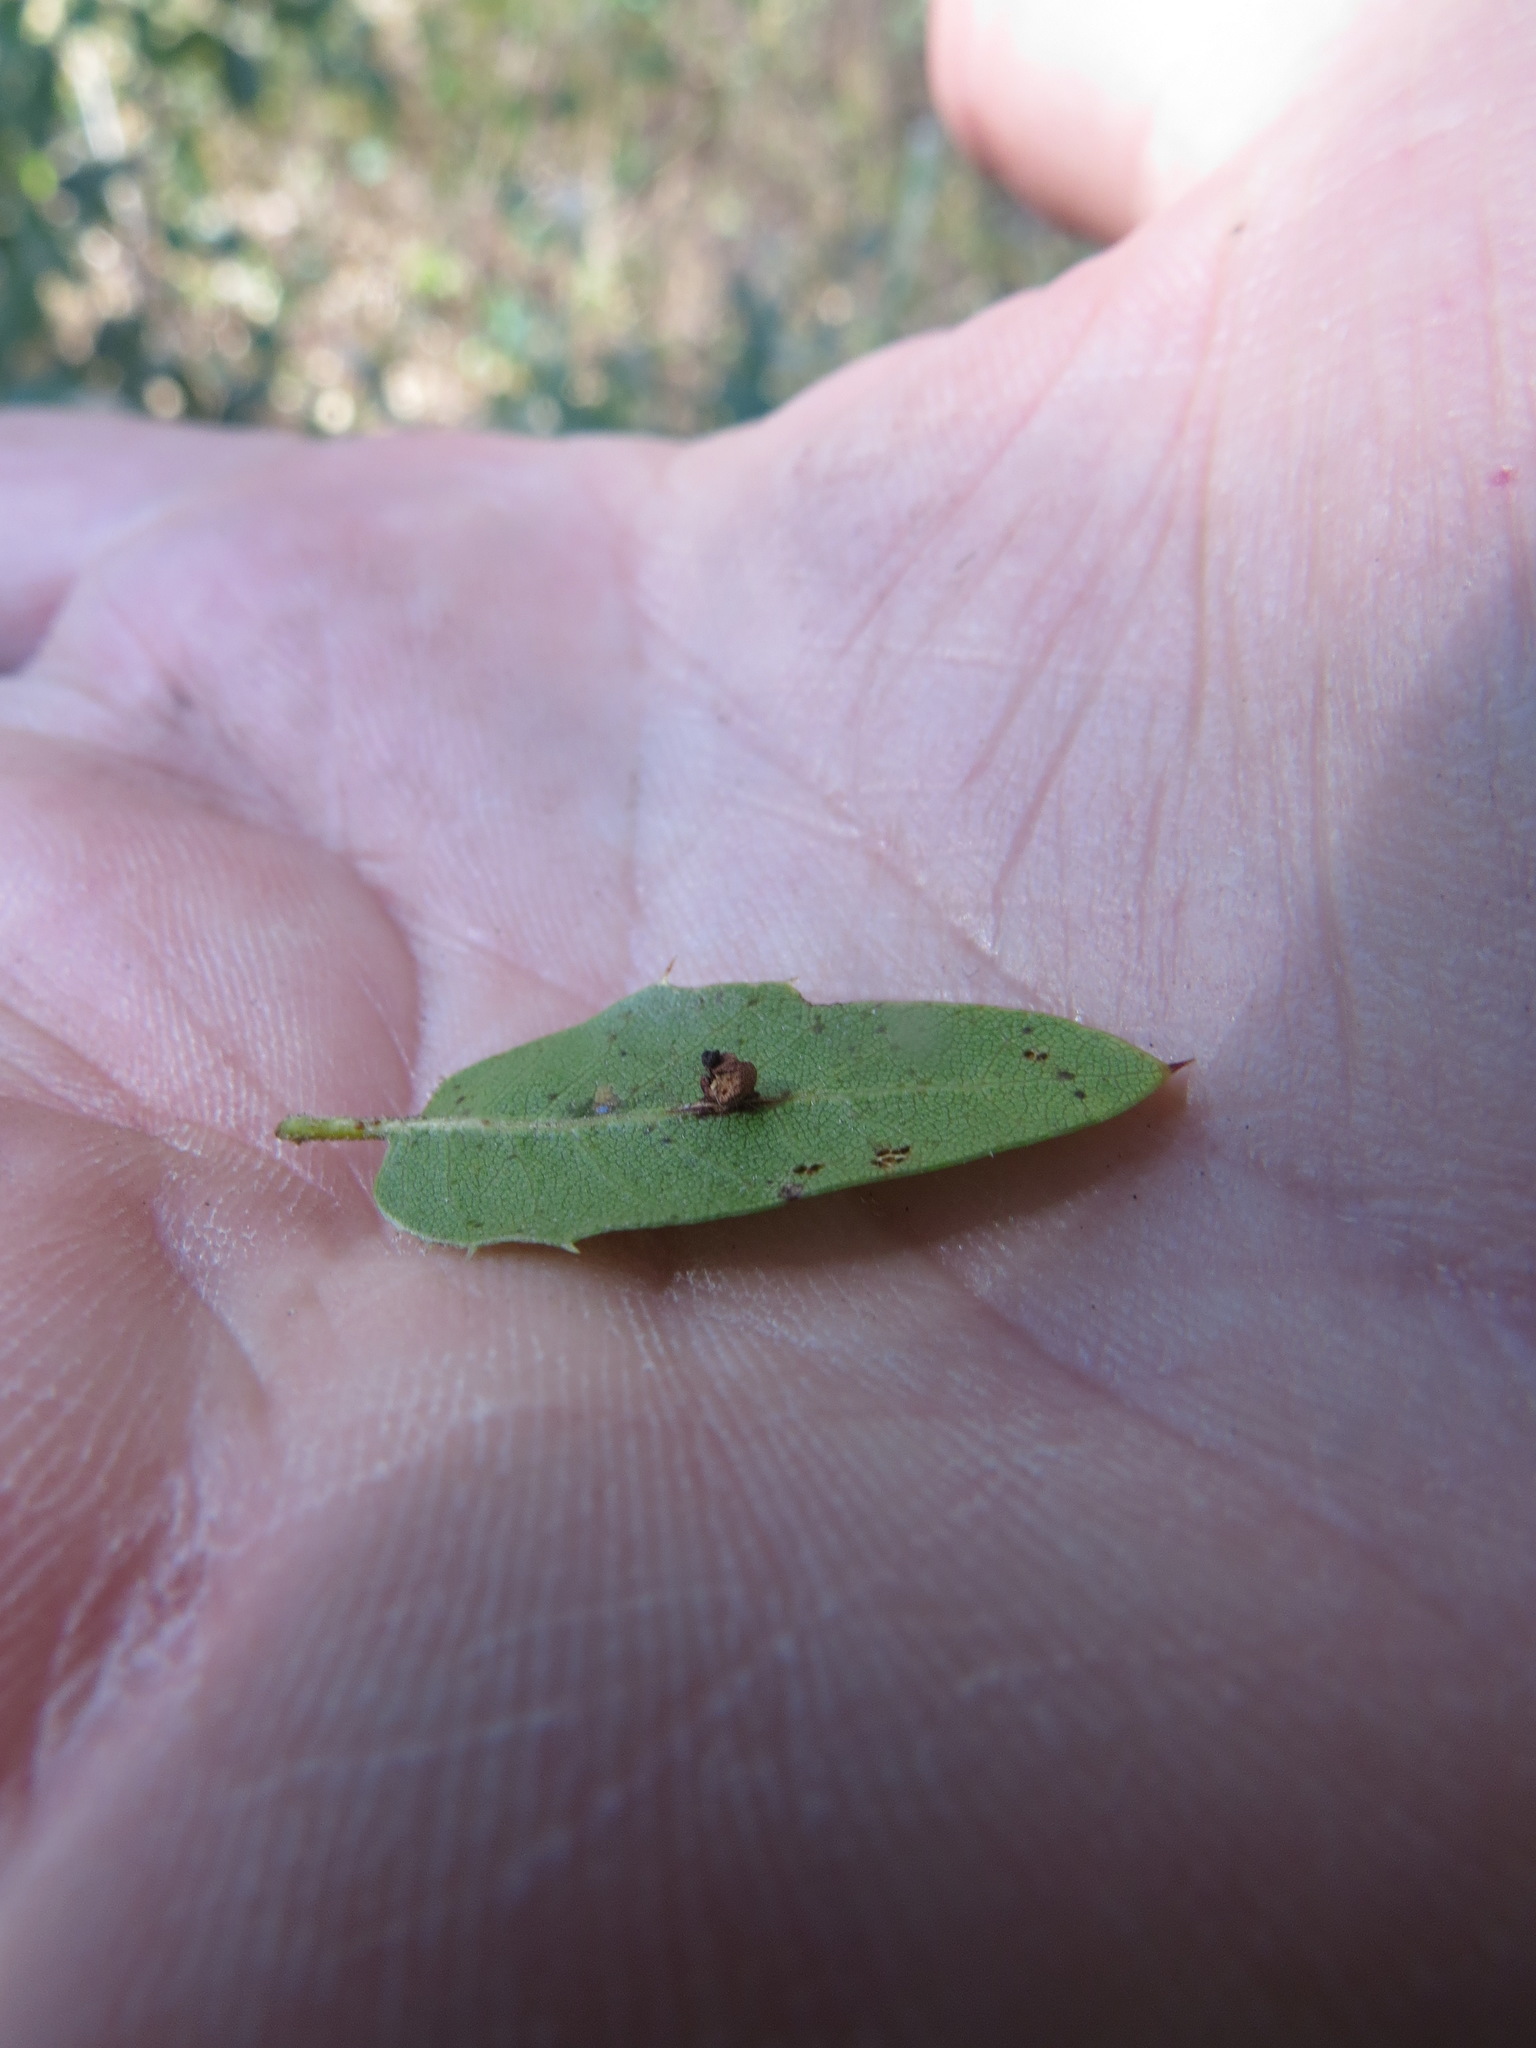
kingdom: Animalia
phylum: Arthropoda
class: Insecta
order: Hymenoptera
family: Cynipidae
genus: Callirhytis
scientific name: Callirhytis
